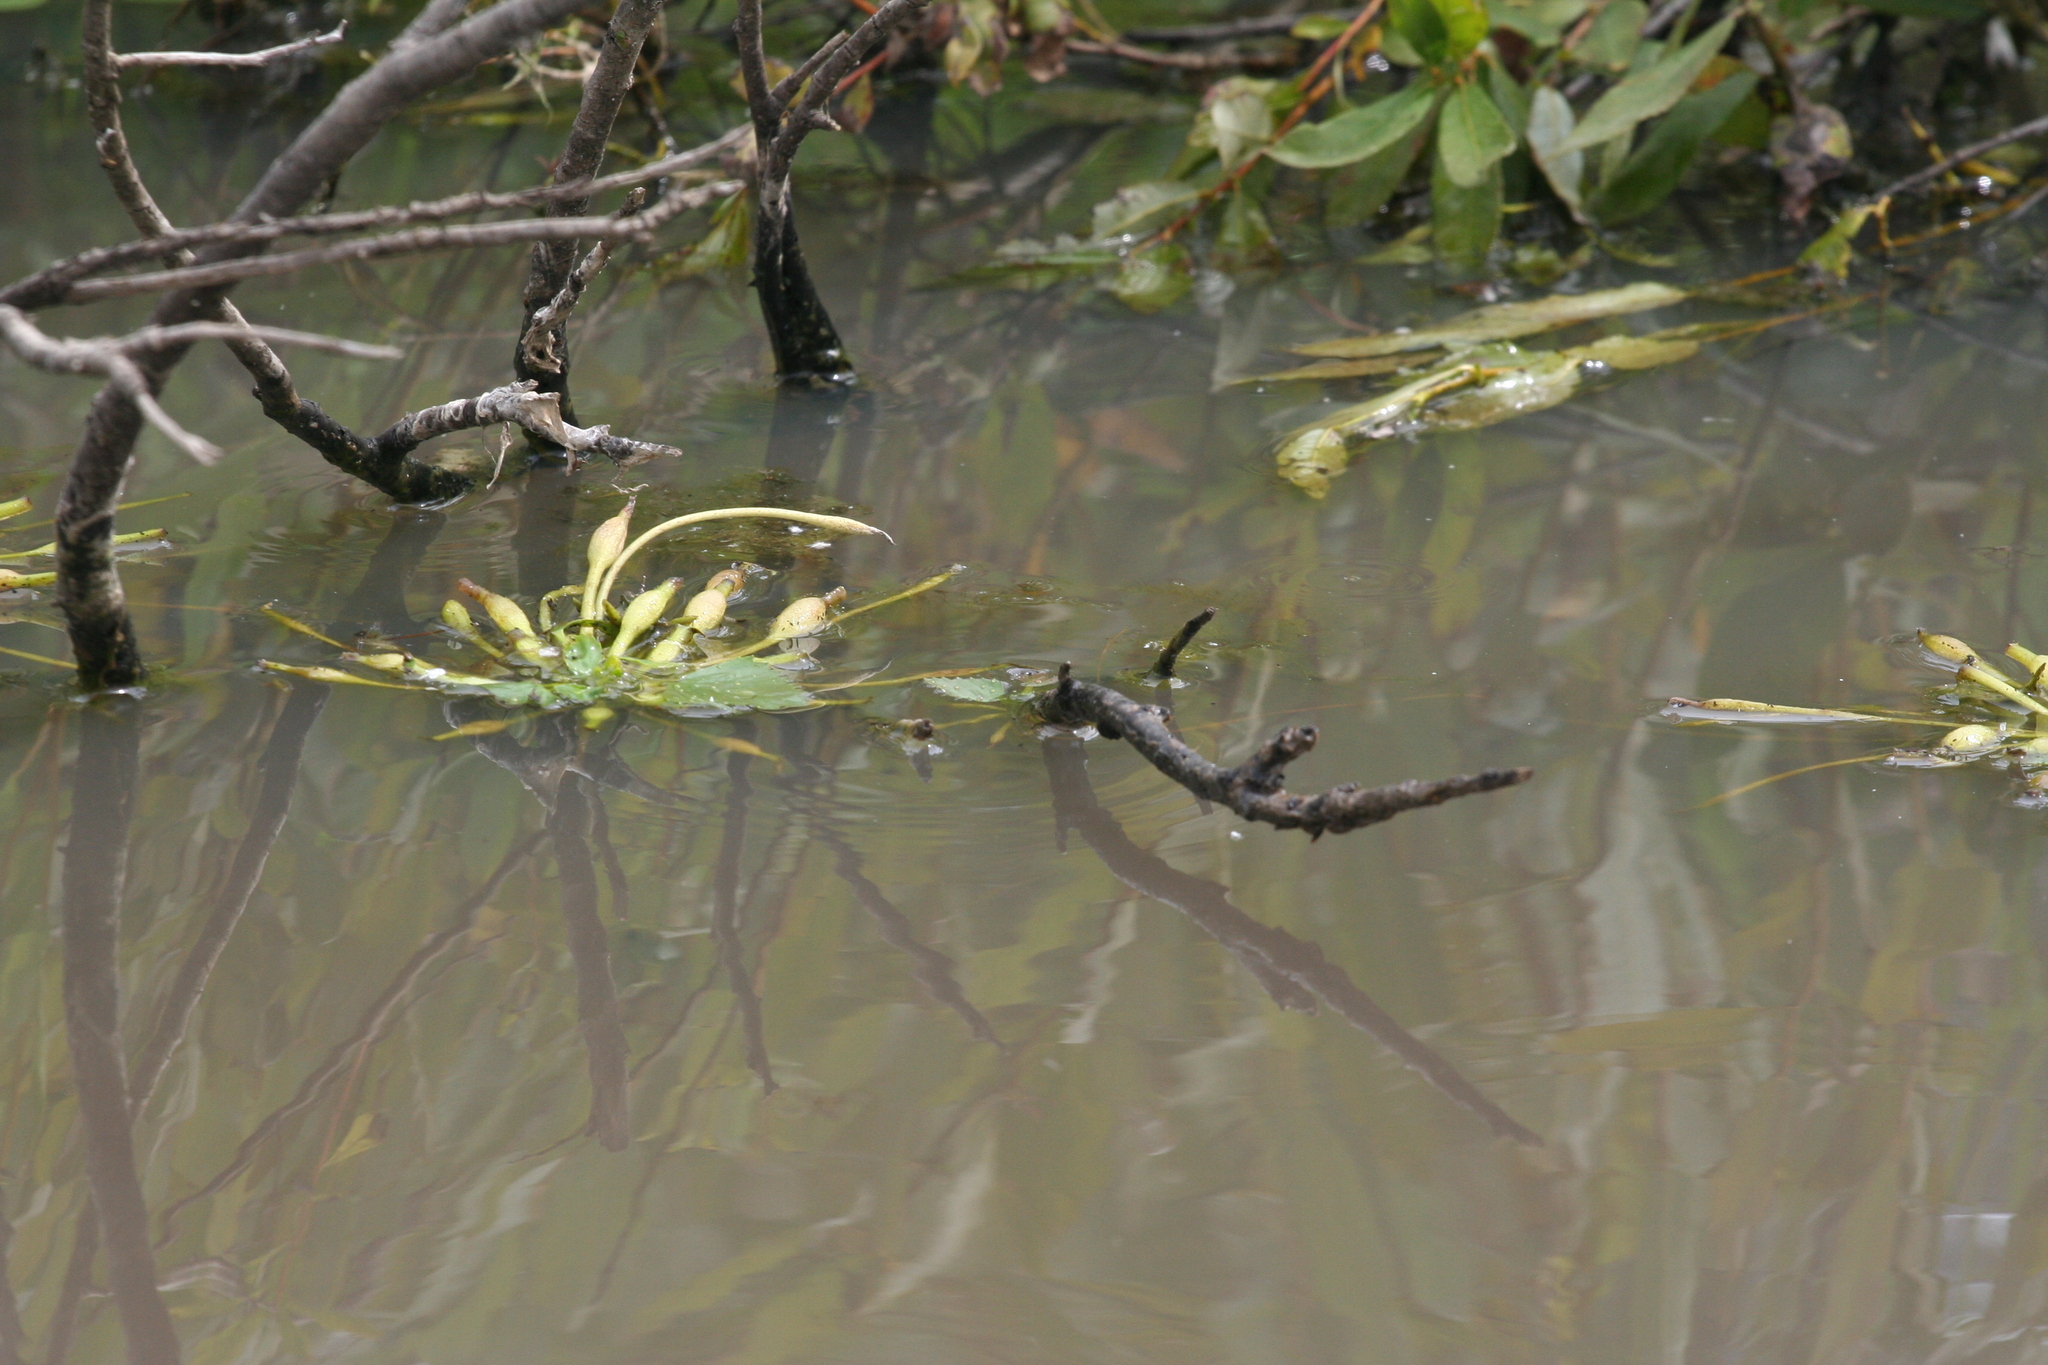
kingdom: Plantae
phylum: Tracheophyta
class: Magnoliopsida
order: Myrtales
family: Lythraceae
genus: Trapa
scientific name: Trapa natans
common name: Water chestnut
